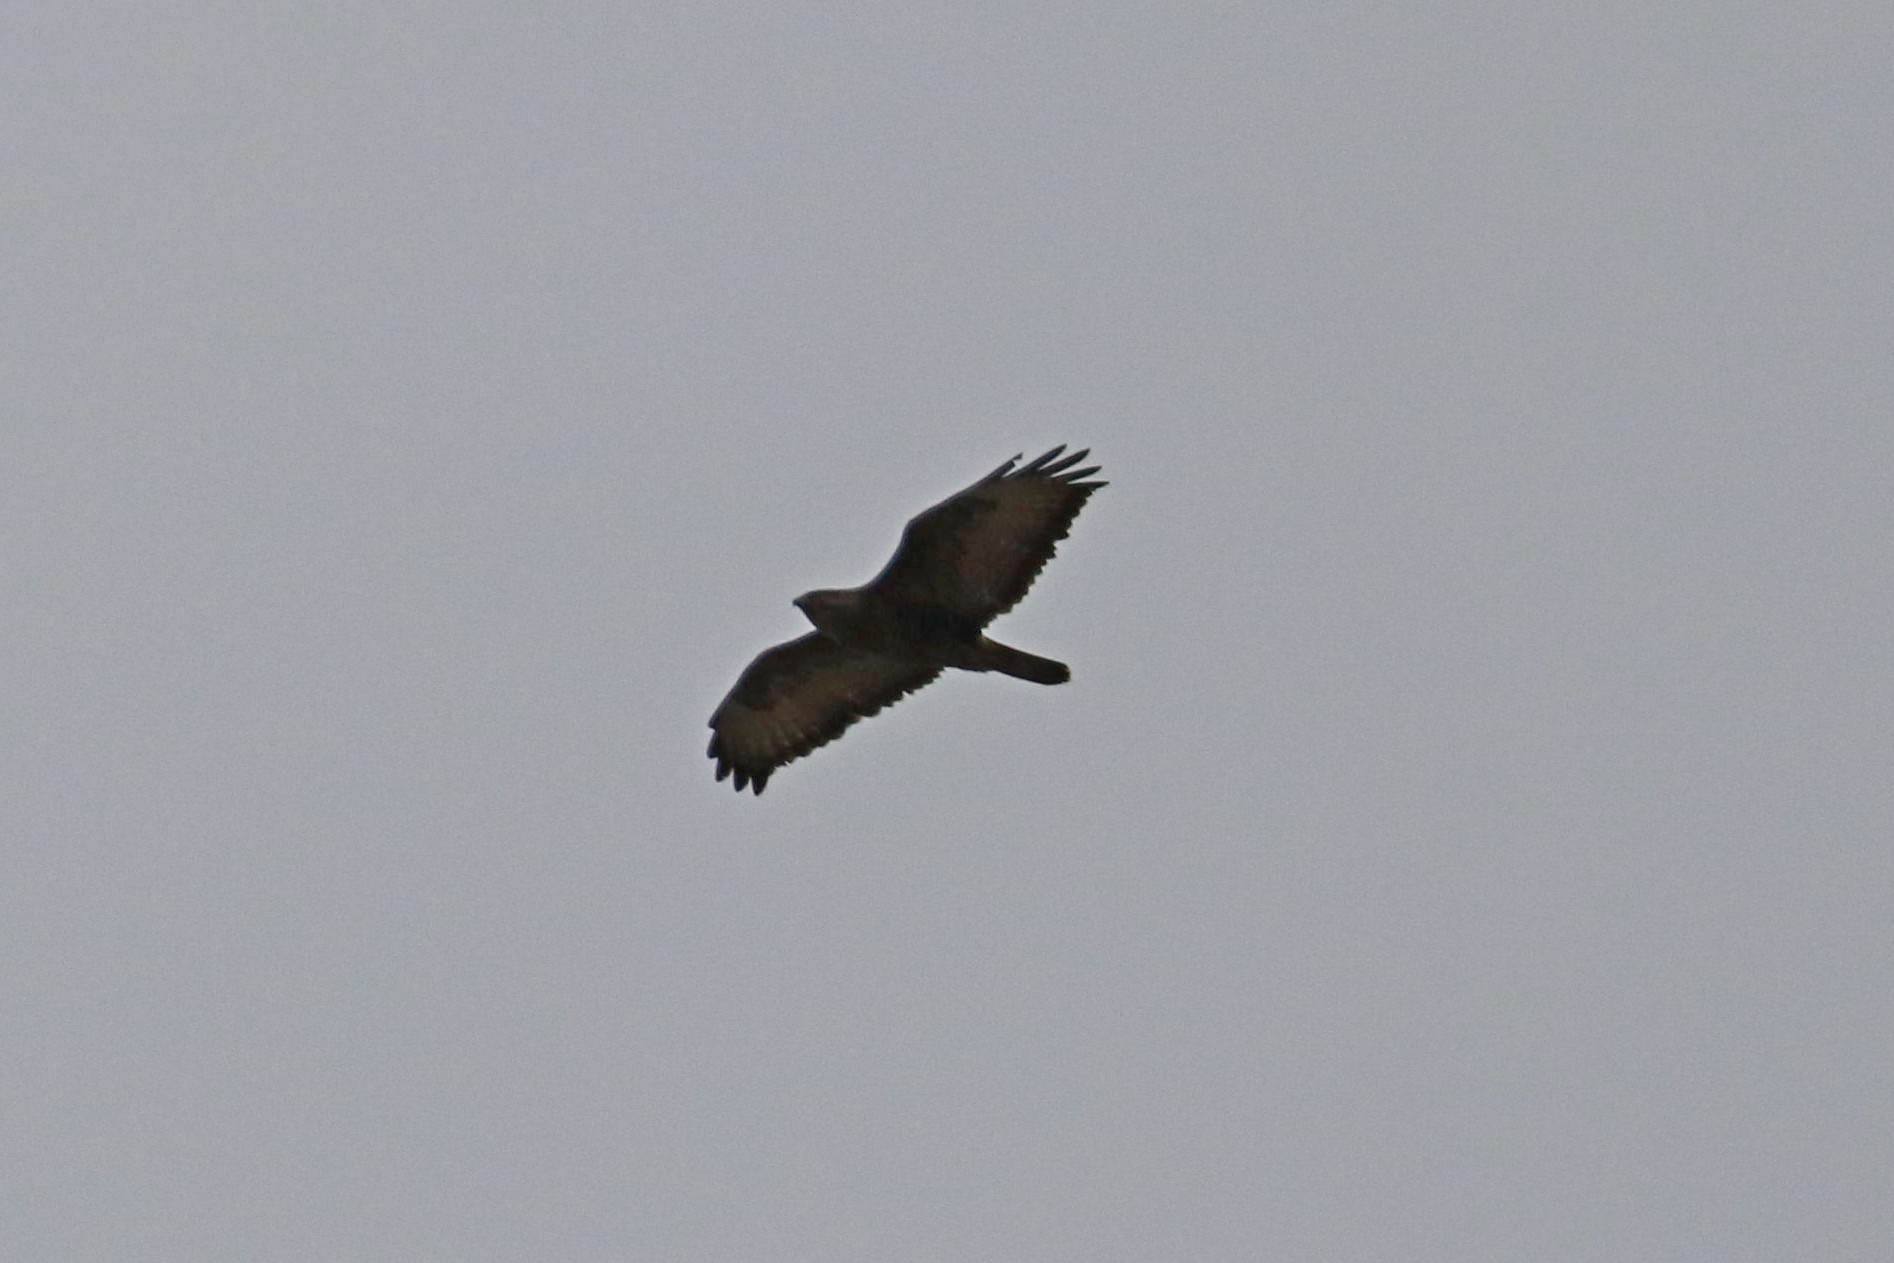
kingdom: Animalia
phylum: Chordata
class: Aves
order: Accipitriformes
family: Accipitridae
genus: Buteo
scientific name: Buteo buteo
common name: Common buzzard
